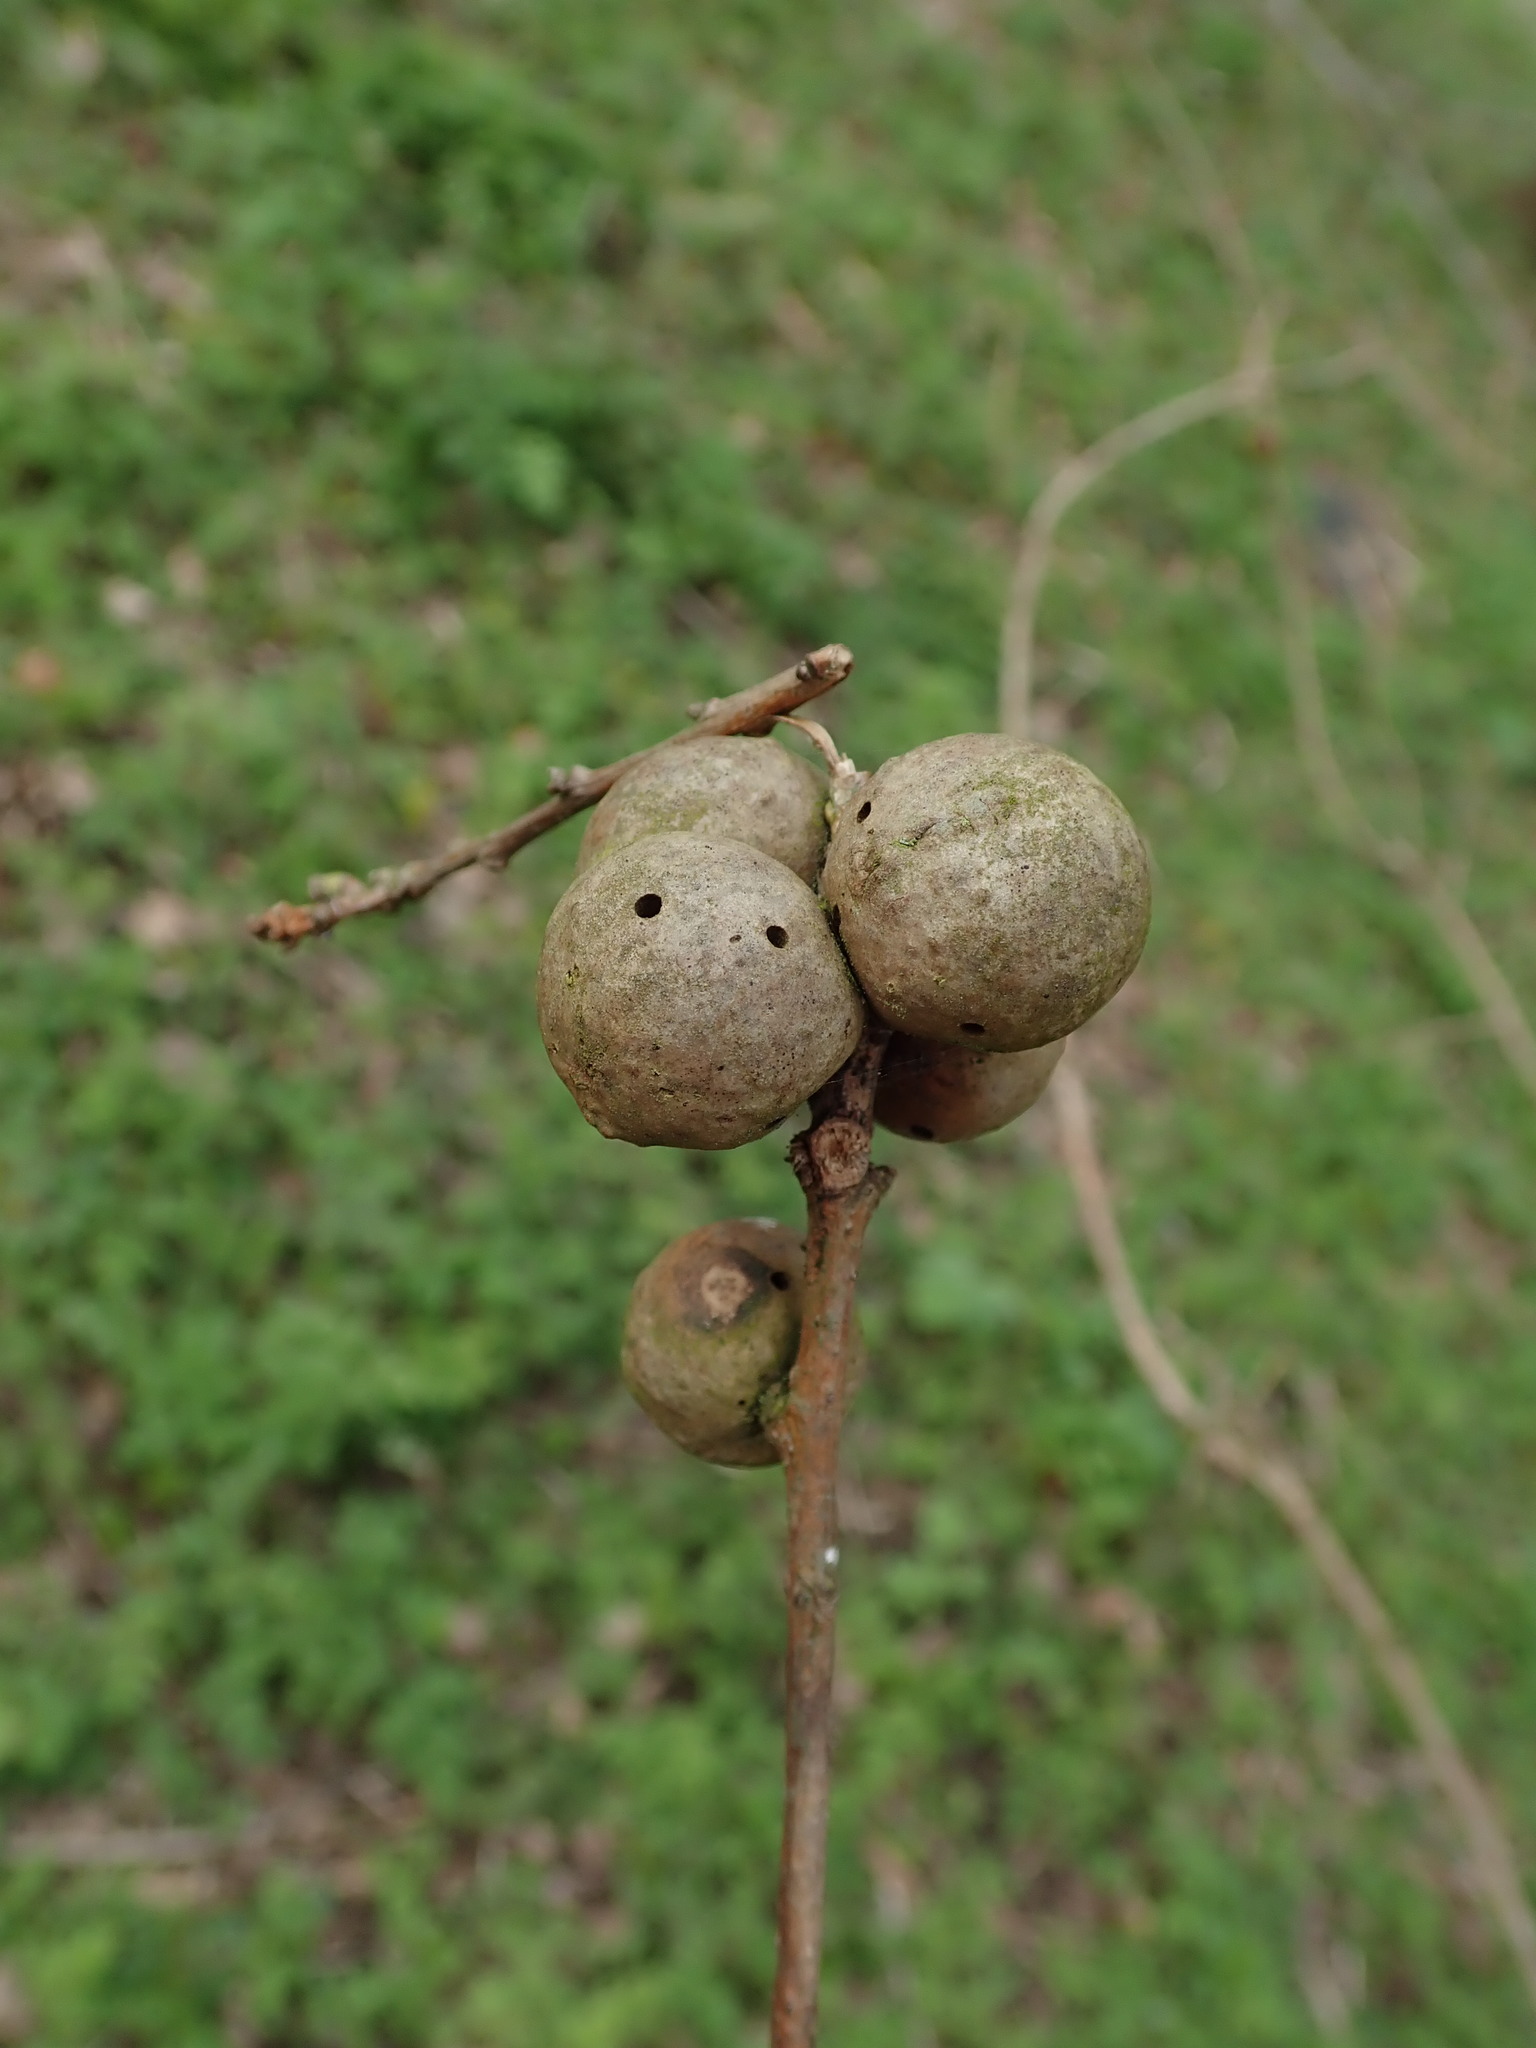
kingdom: Animalia
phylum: Arthropoda
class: Insecta
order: Hymenoptera
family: Cynipidae
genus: Andricus
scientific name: Andricus kollari
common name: Marble gall
